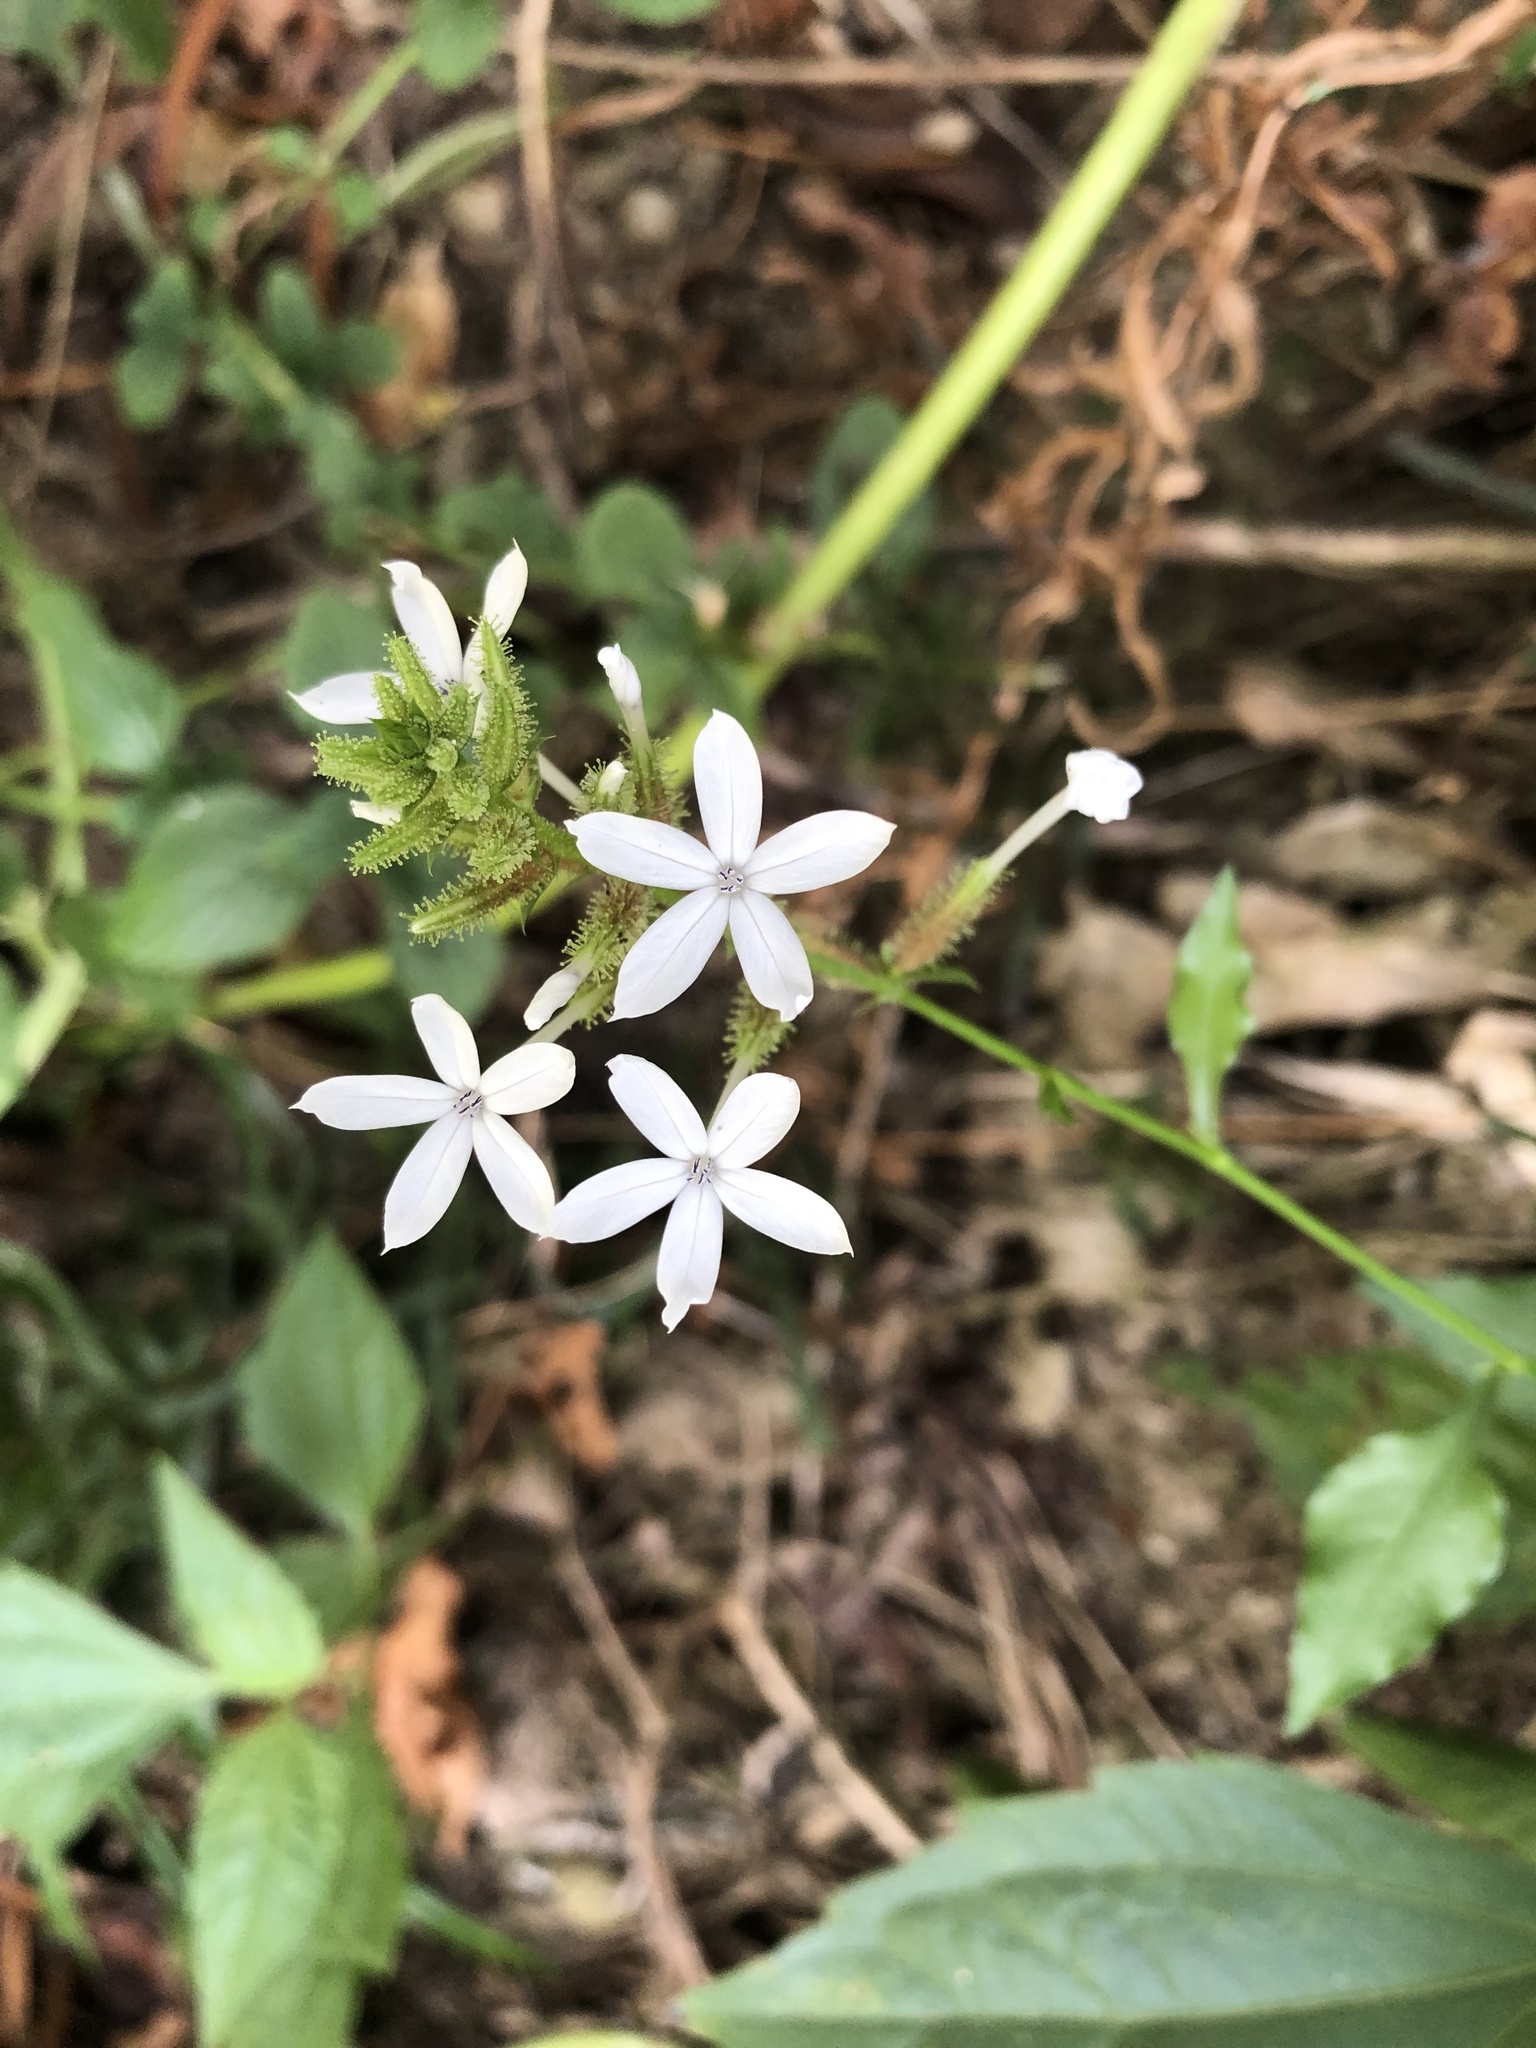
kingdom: Plantae
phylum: Tracheophyta
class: Magnoliopsida
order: Caryophyllales
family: Plumbaginaceae
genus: Plumbago
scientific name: Plumbago zeylanica
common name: Doctorbush
